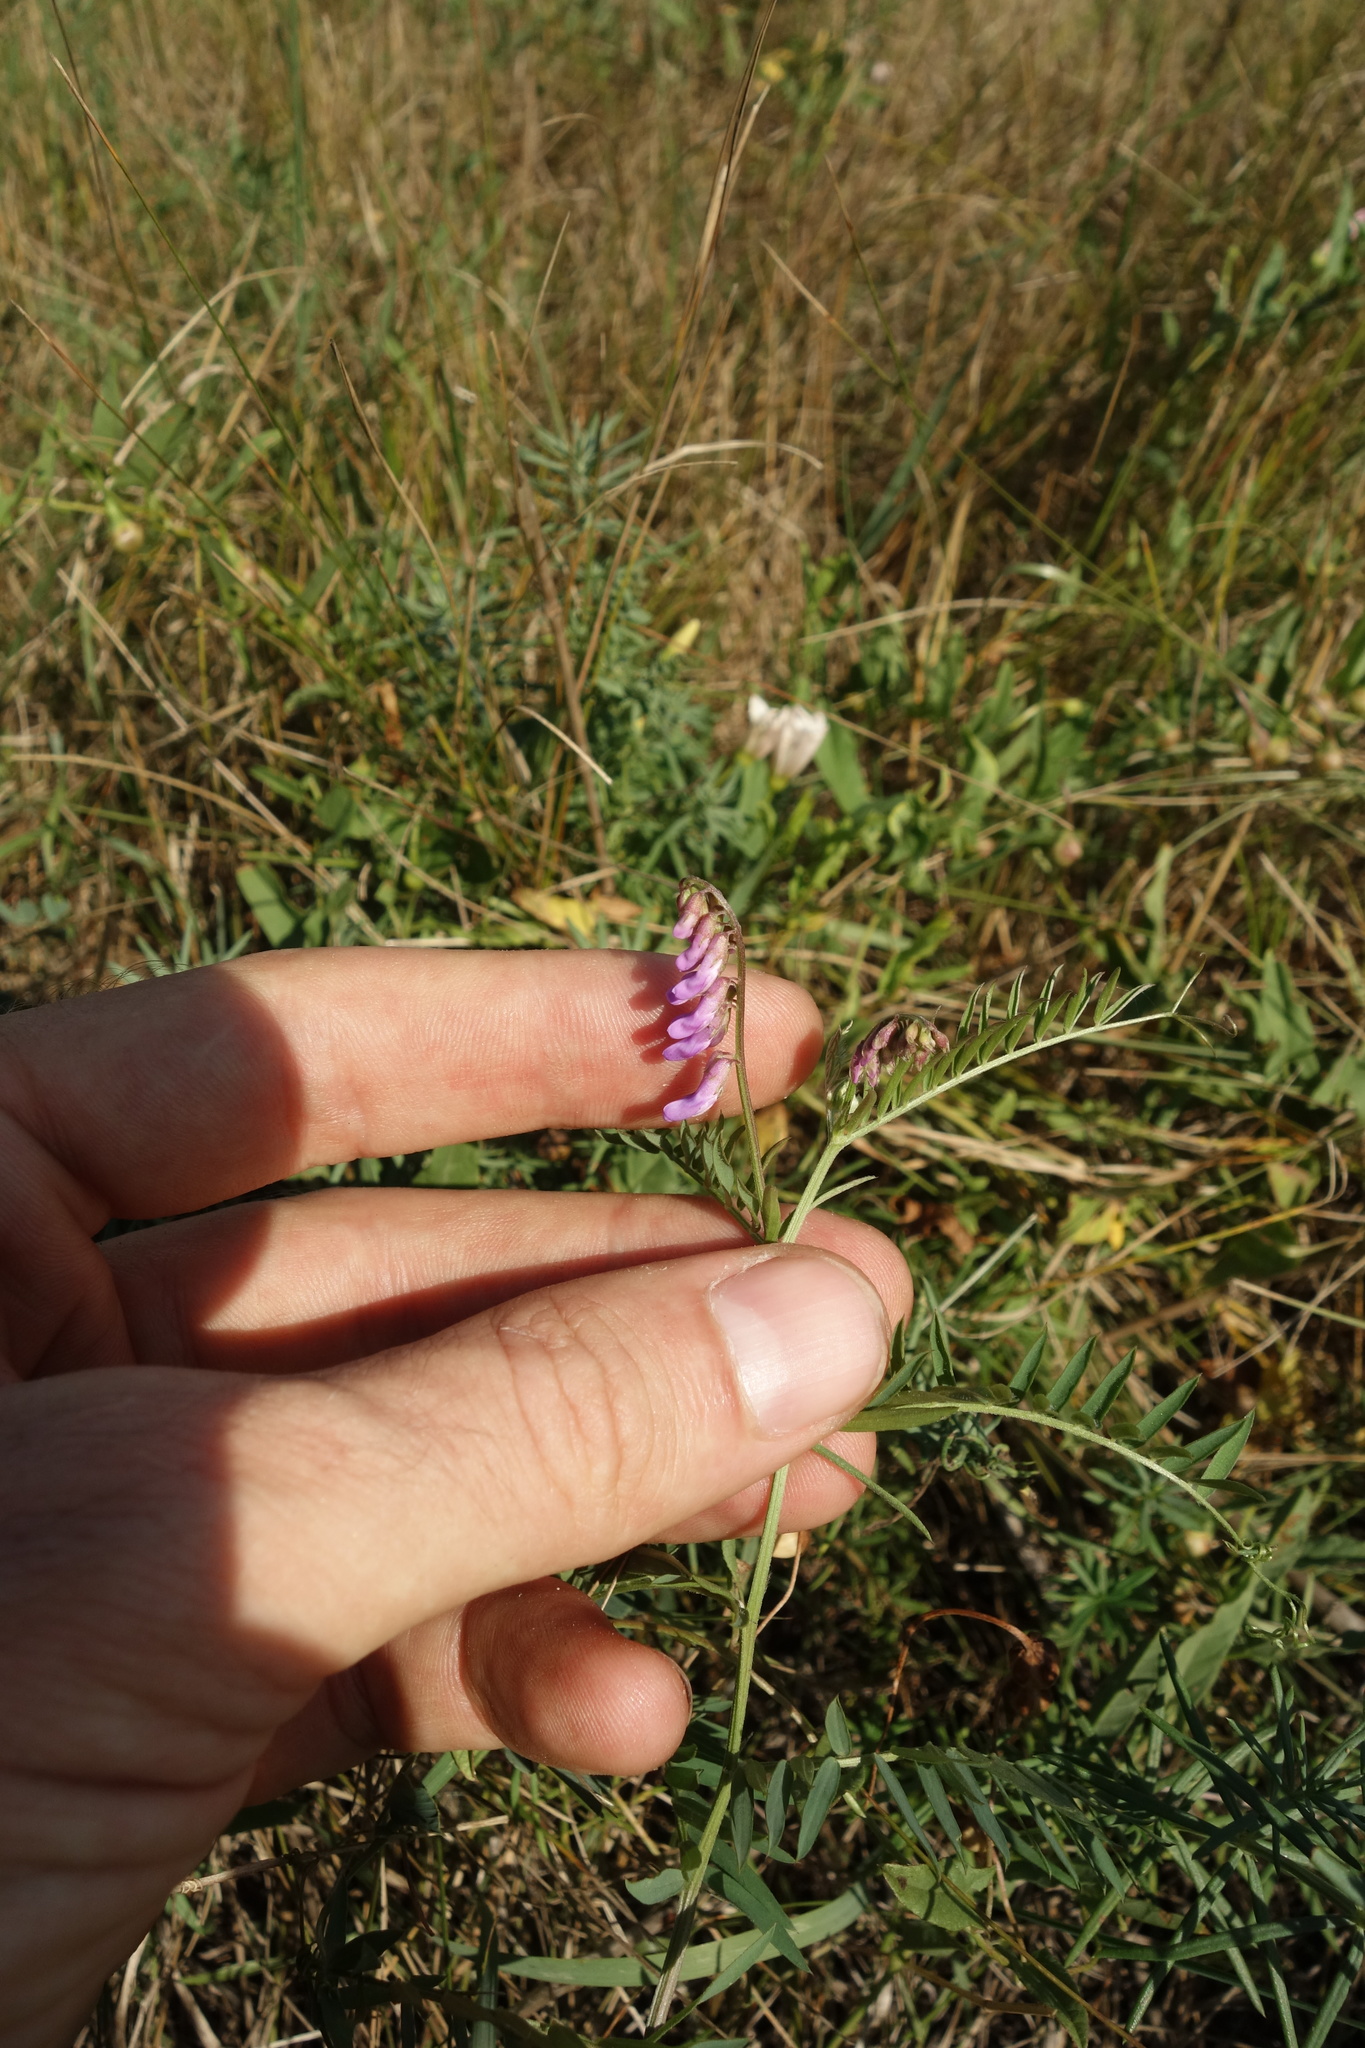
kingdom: Plantae
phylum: Tracheophyta
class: Magnoliopsida
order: Fabales
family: Fabaceae
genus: Vicia
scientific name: Vicia cracca
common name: Bird vetch
